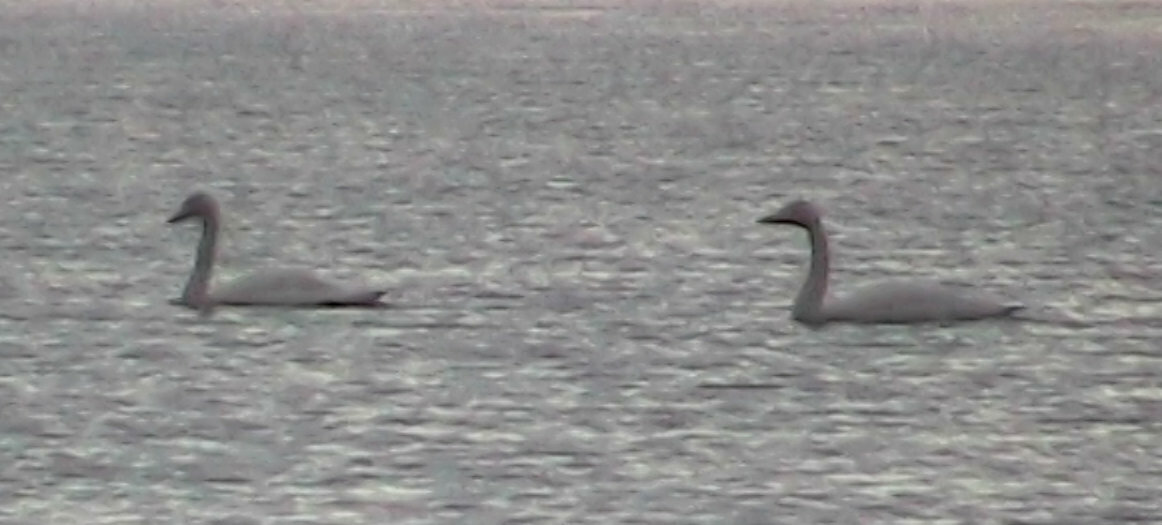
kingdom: Animalia
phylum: Chordata
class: Aves
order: Anseriformes
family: Anatidae
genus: Cygnus
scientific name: Cygnus cygnus
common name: Whooper swan
